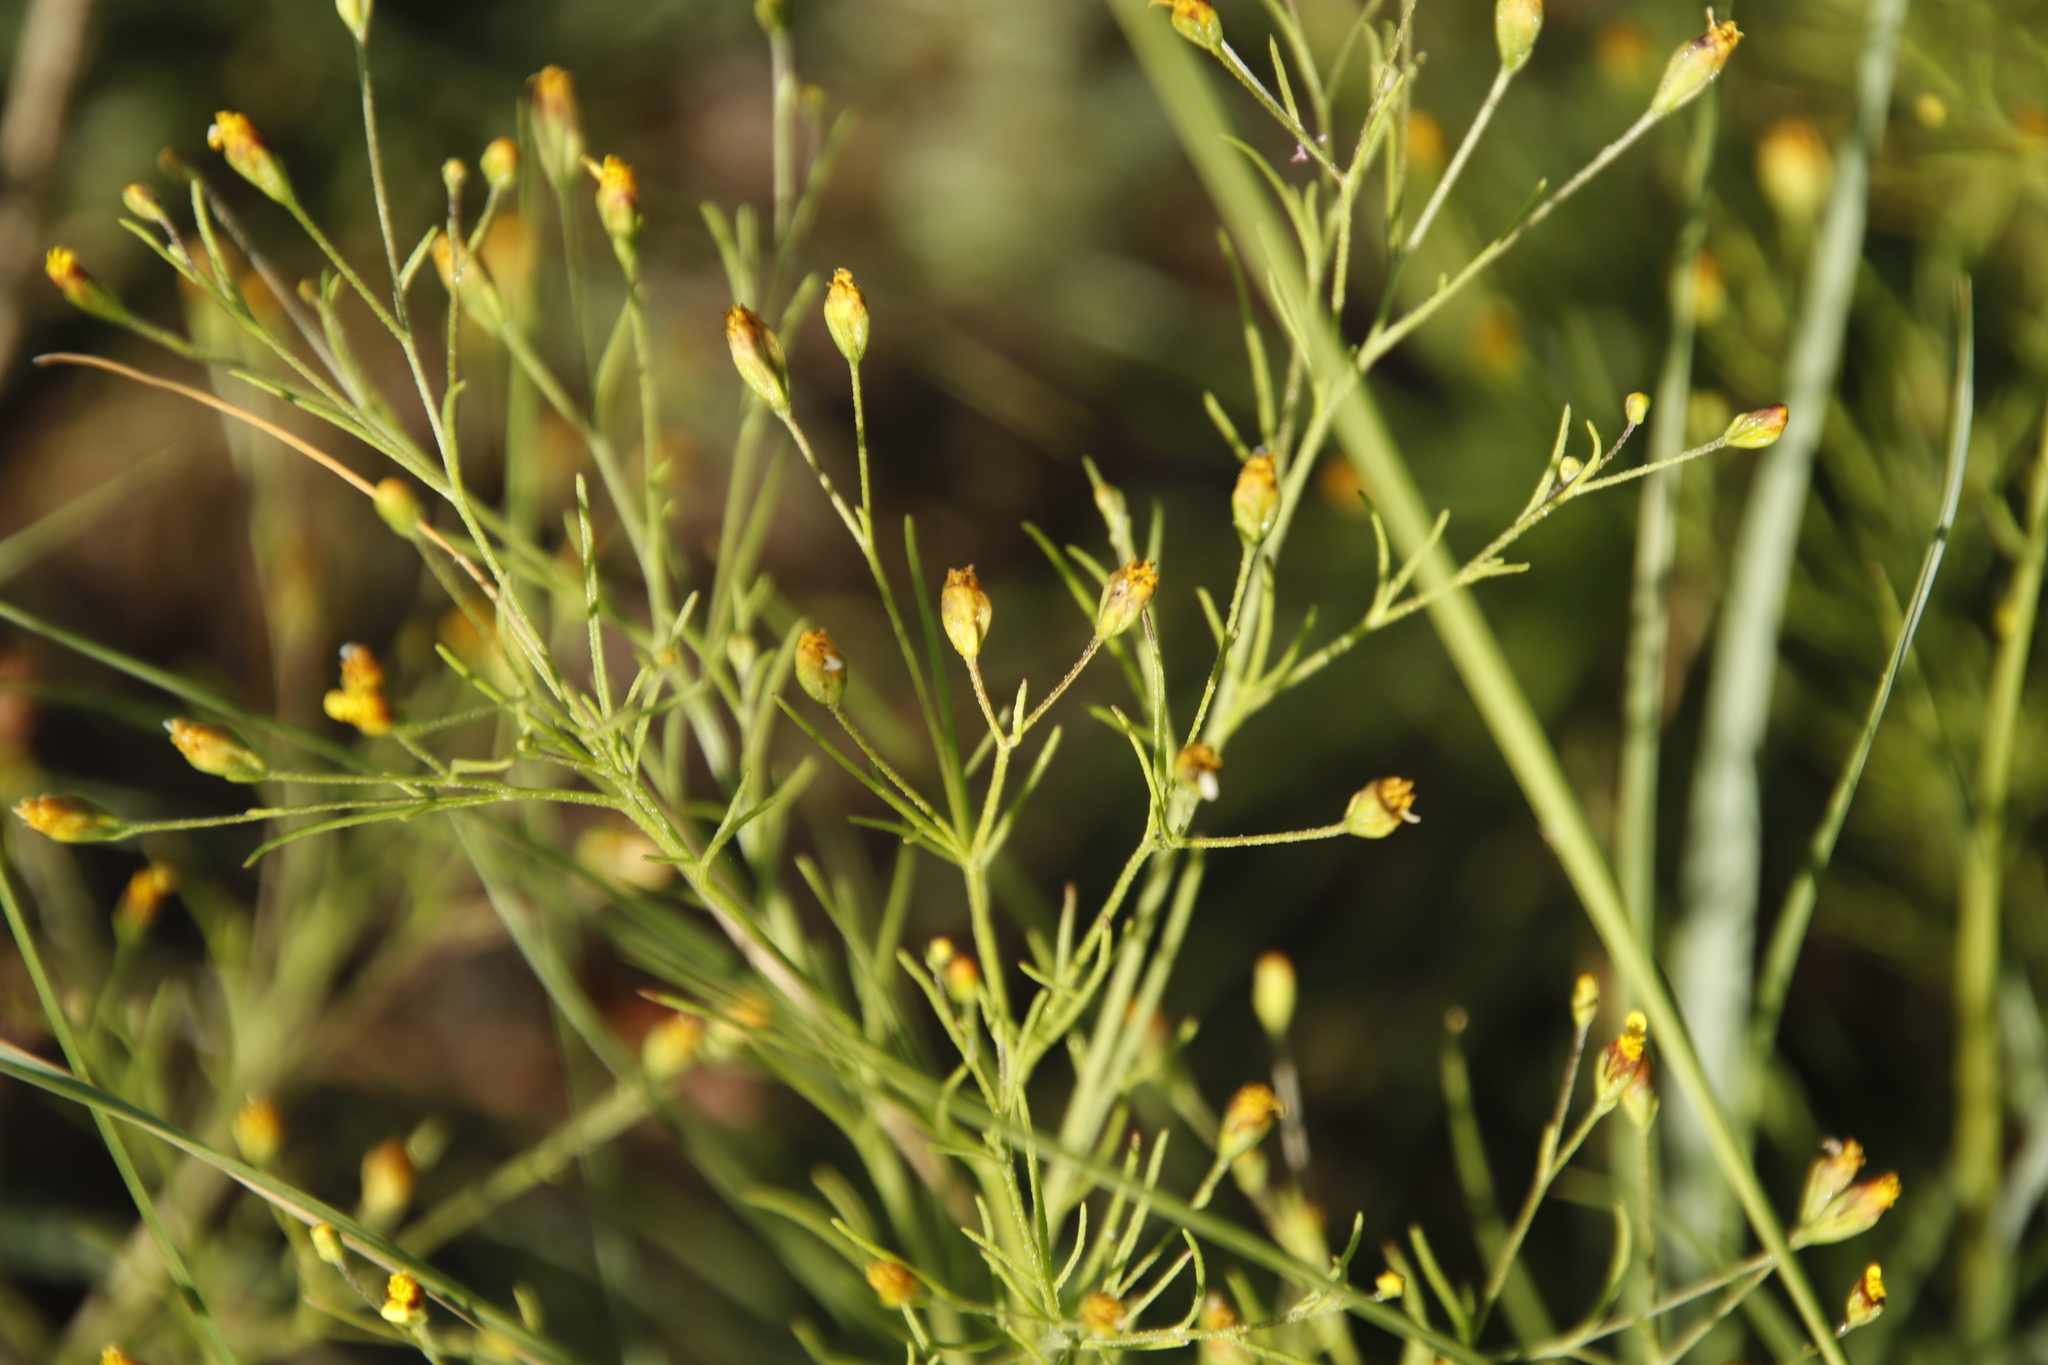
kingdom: Plantae
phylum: Tracheophyta
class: Magnoliopsida
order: Asterales
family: Asteraceae
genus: Schkuhria
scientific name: Schkuhria pinnata
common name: Dwarf marigold
